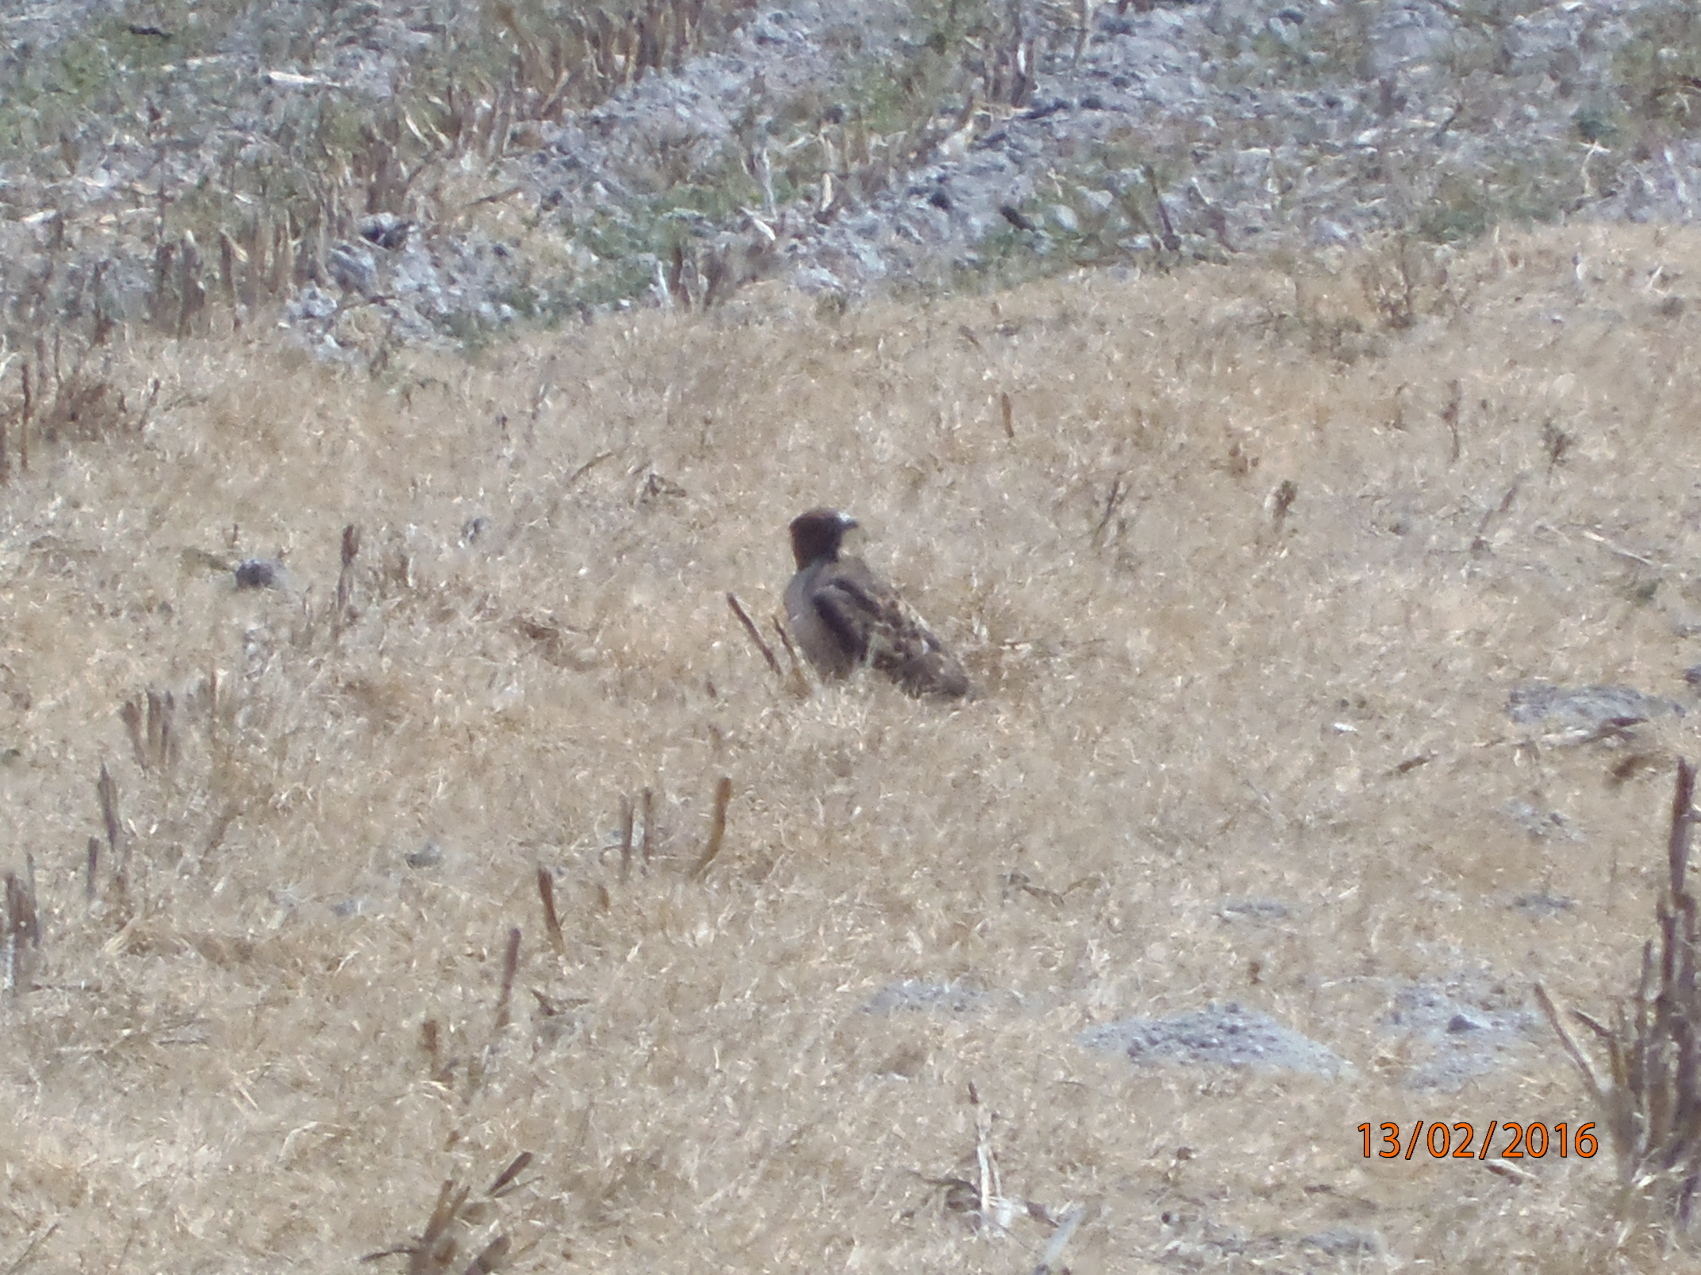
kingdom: Animalia
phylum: Chordata
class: Aves
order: Accipitriformes
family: Accipitridae
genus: Buteo
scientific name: Buteo jamaicensis
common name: Red-tailed hawk
